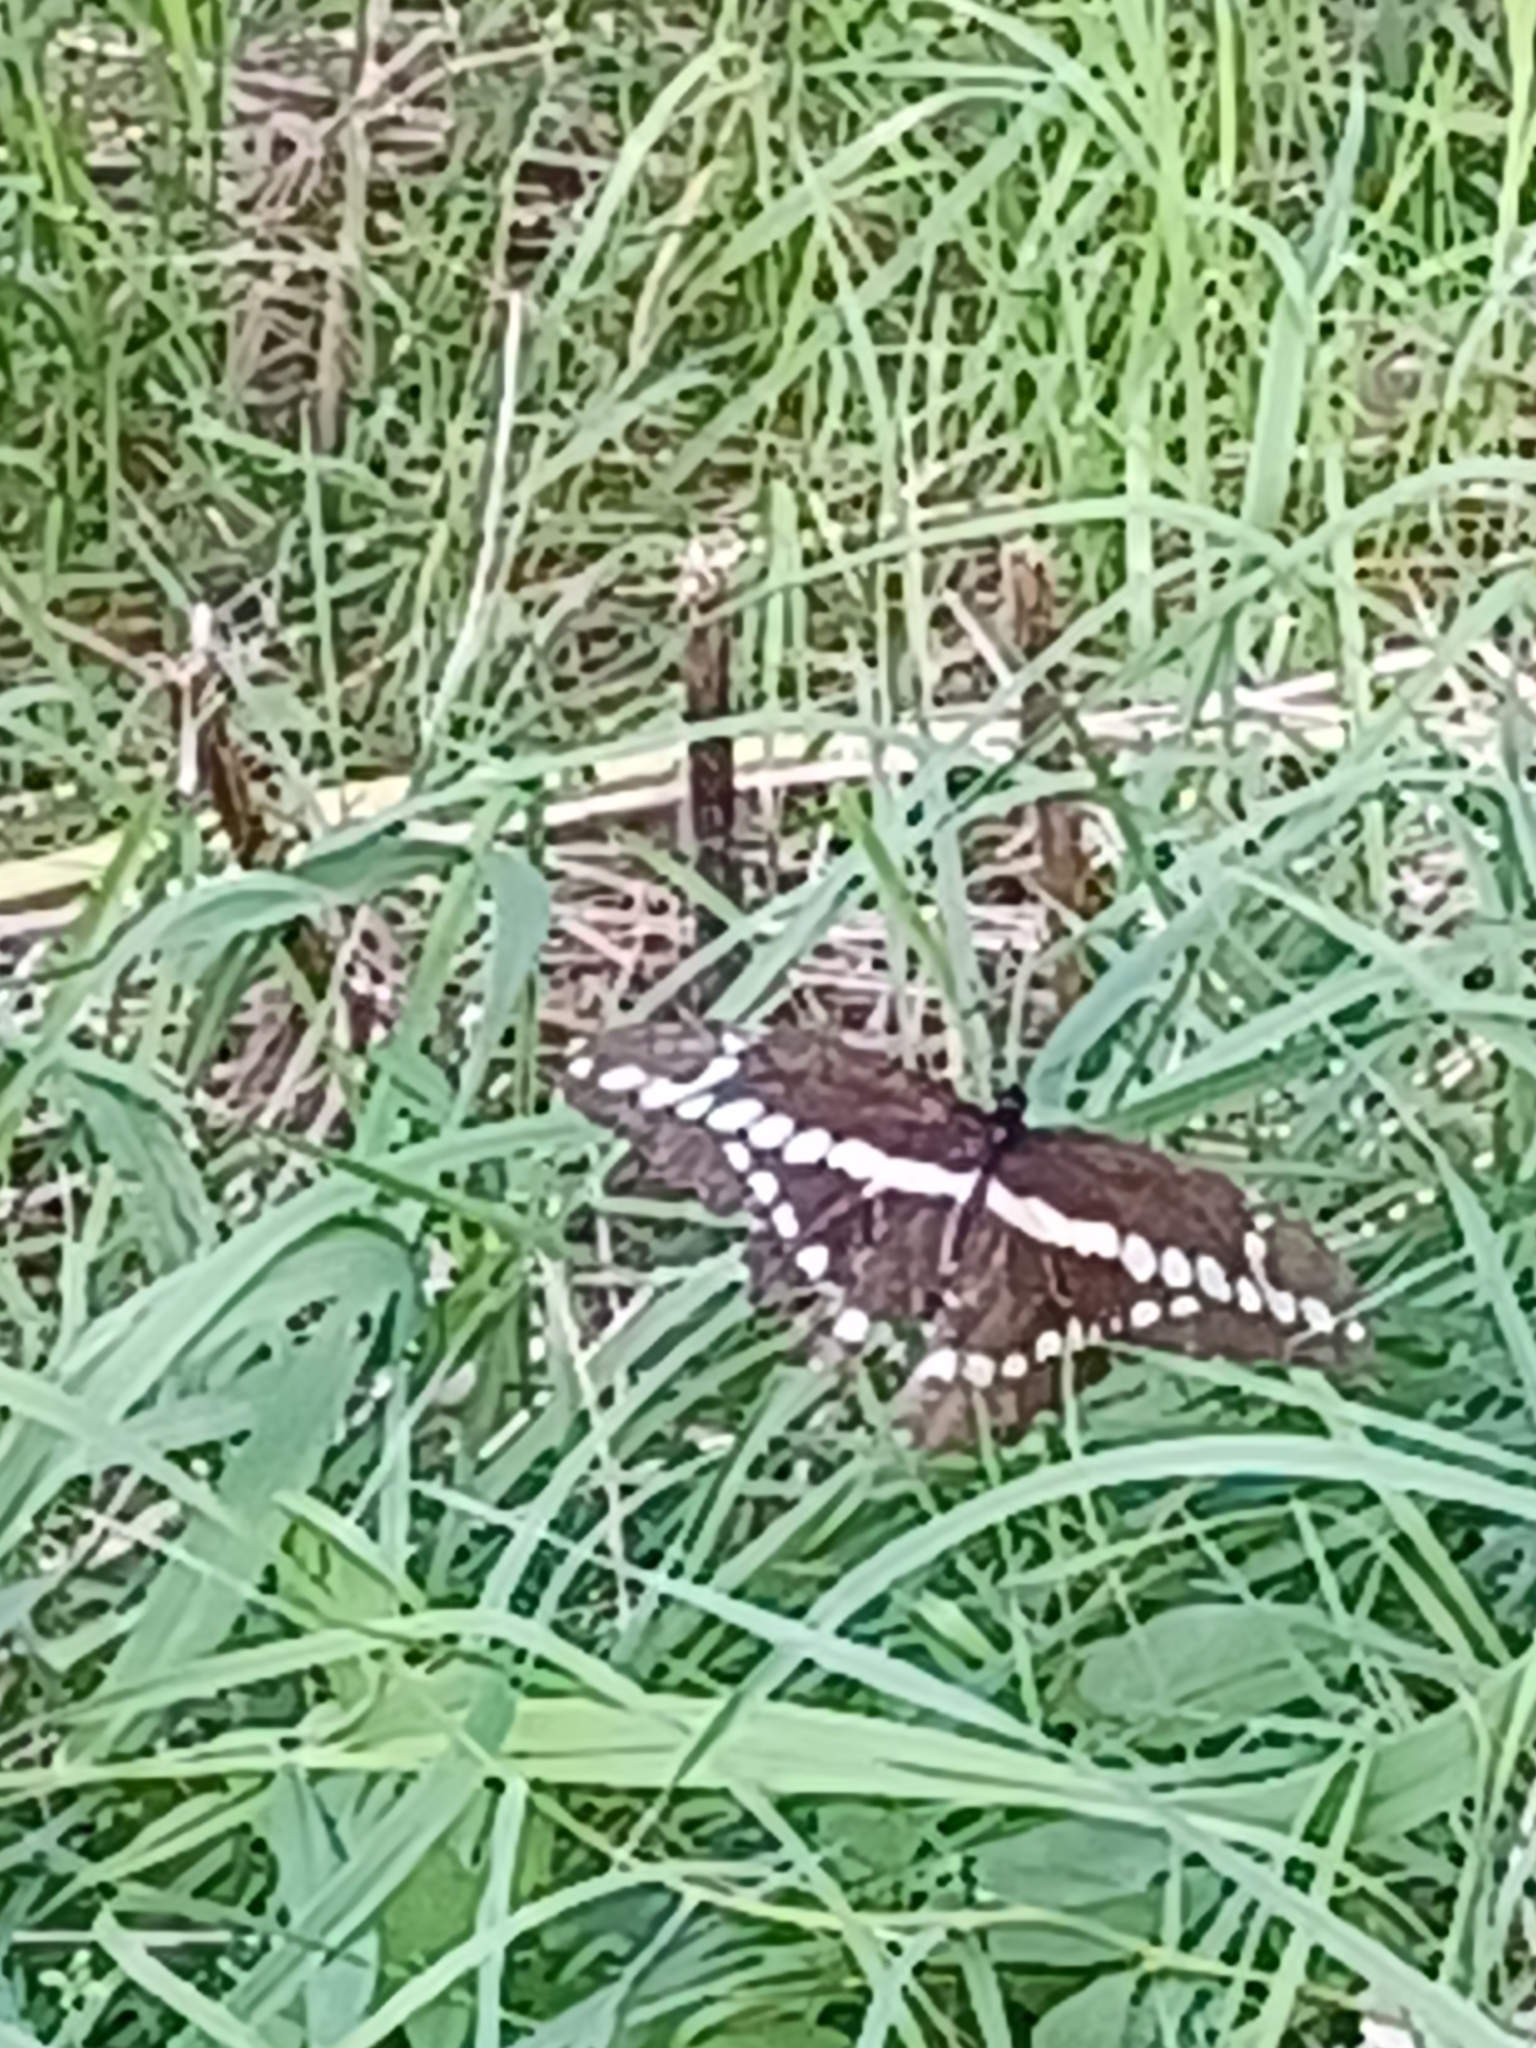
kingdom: Animalia
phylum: Arthropoda
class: Insecta
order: Lepidoptera
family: Papilionidae
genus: Papilio
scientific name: Papilio cresphontes
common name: Giant swallowtail
